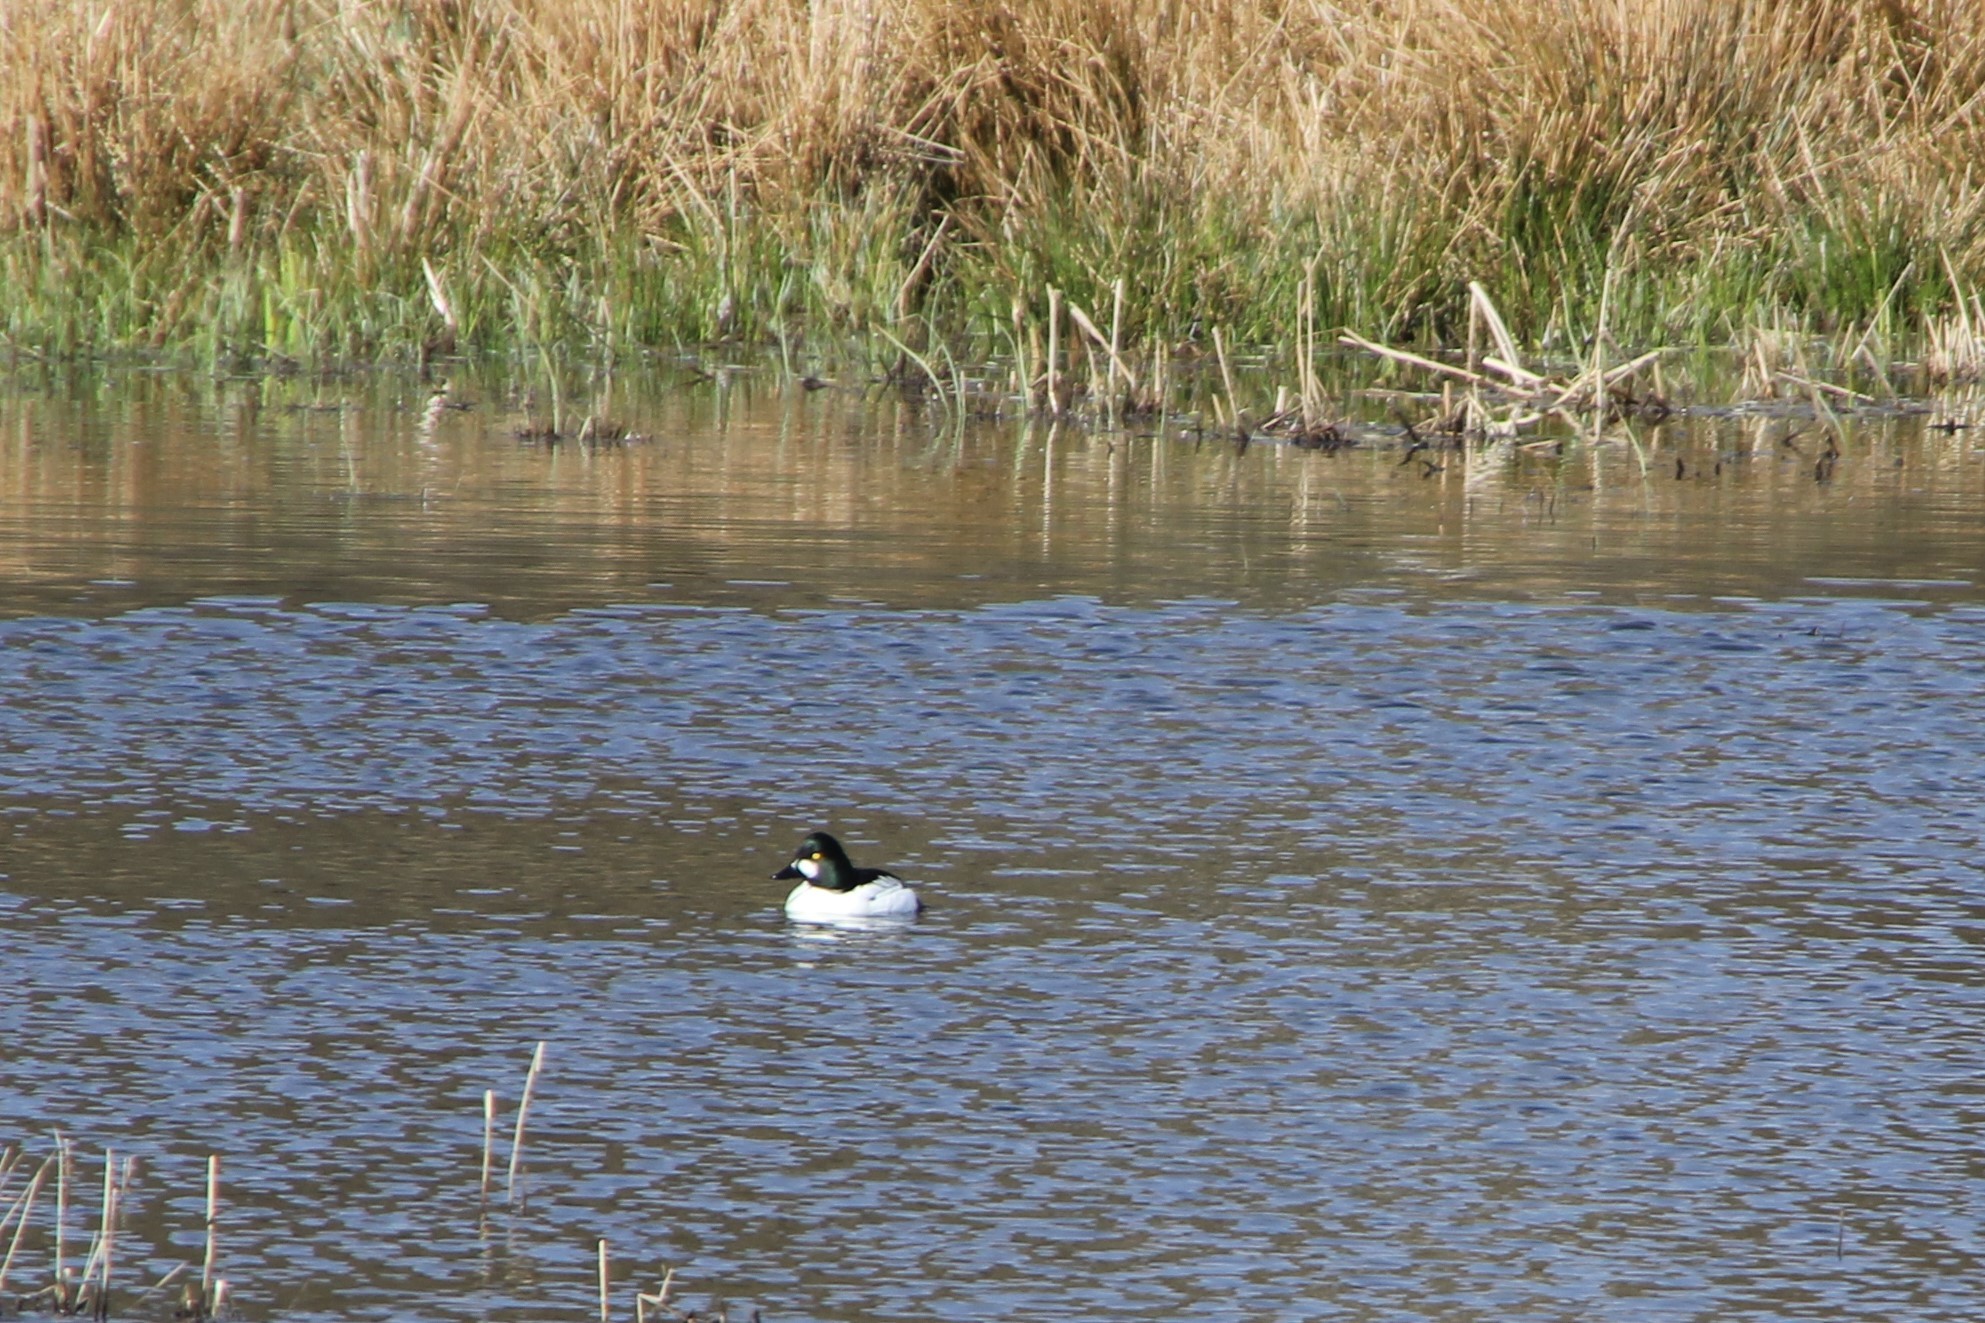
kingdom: Animalia
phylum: Chordata
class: Aves
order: Anseriformes
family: Anatidae
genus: Bucephala
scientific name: Bucephala clangula
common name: Common goldeneye
